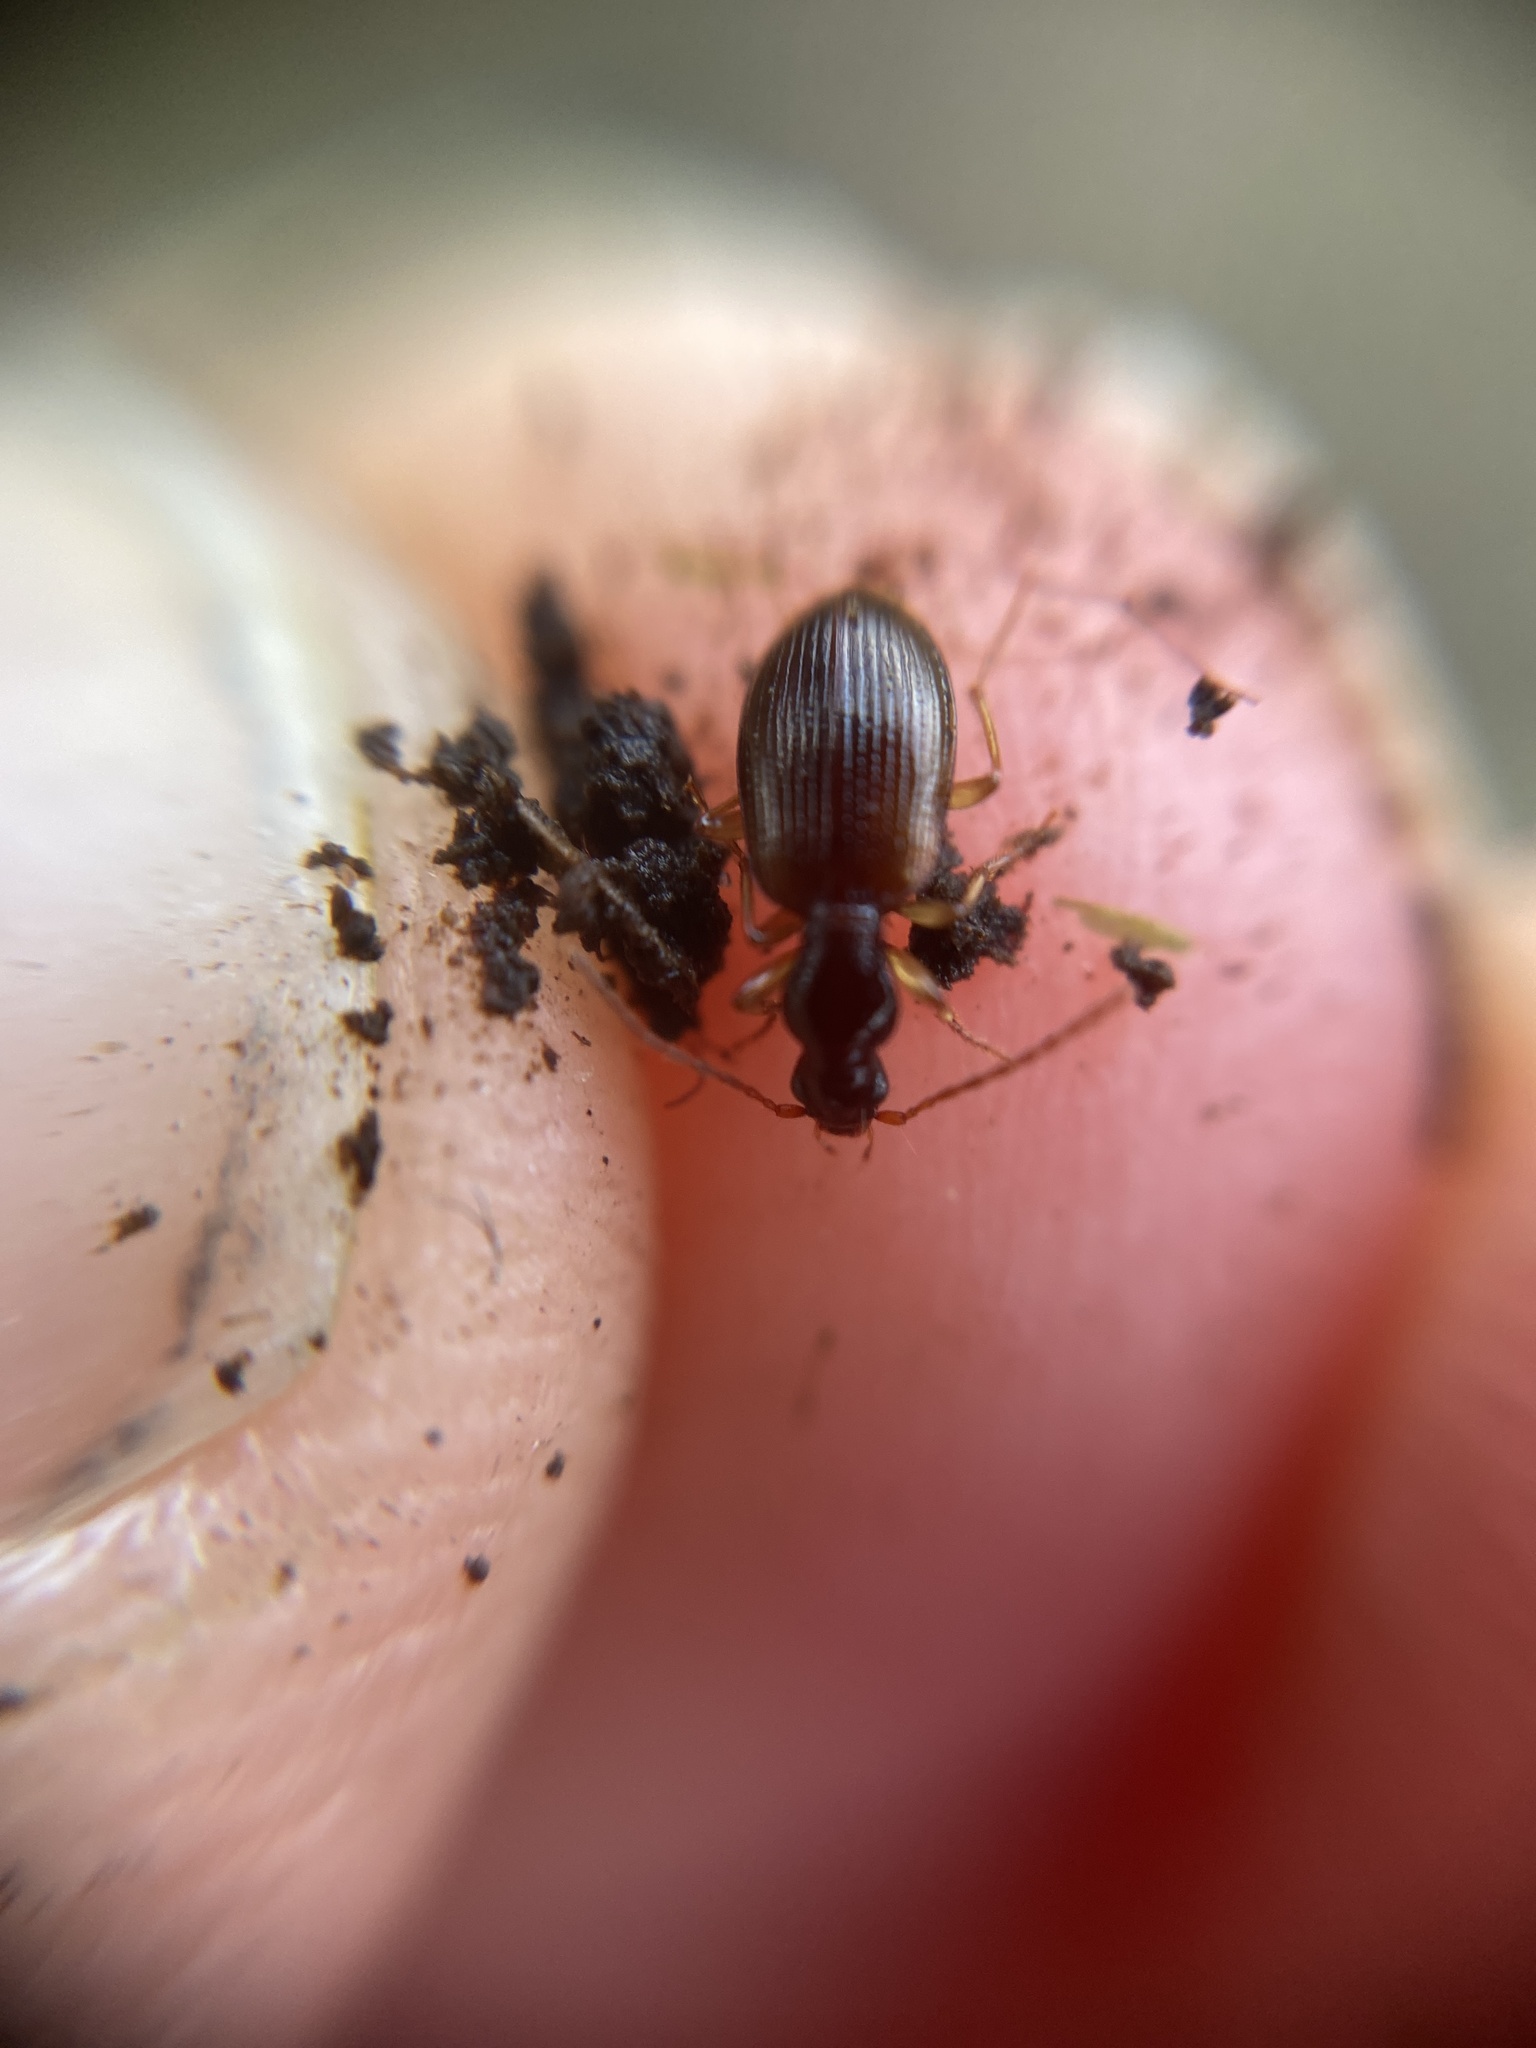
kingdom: Animalia
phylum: Arthropoda
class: Insecta
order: Coleoptera
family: Carabidae
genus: Oxypselaphus
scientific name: Oxypselaphus obscurus
